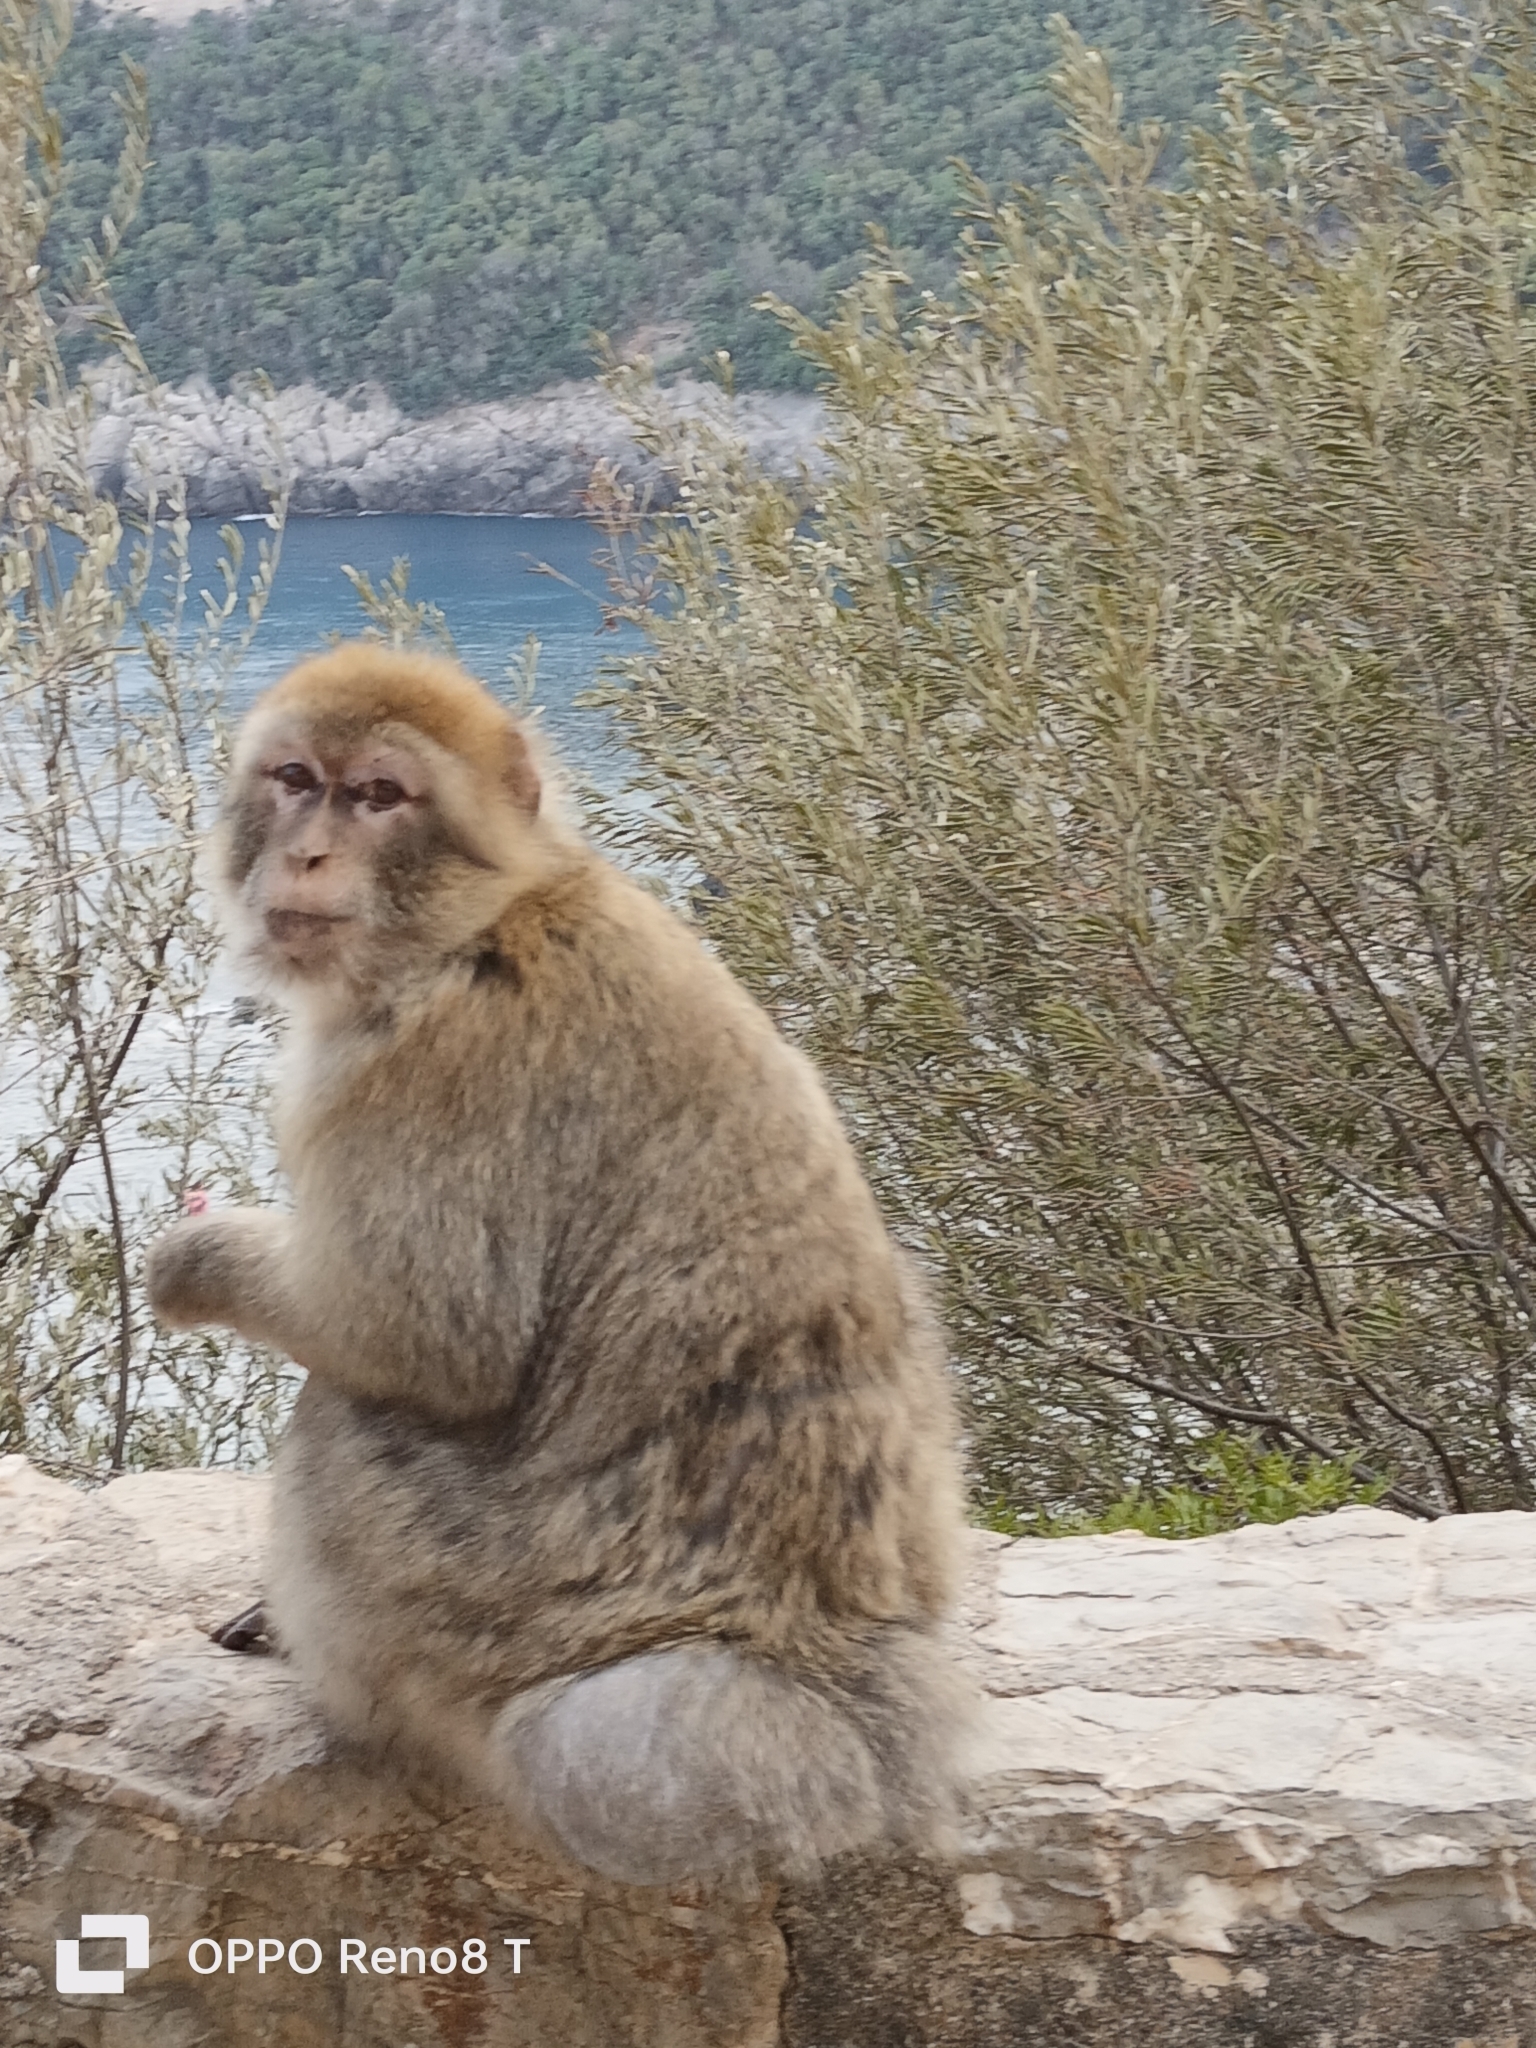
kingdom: Animalia
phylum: Chordata
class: Mammalia
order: Primates
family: Cercopithecidae
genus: Macaca
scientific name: Macaca sylvanus
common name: Barbary macaque
